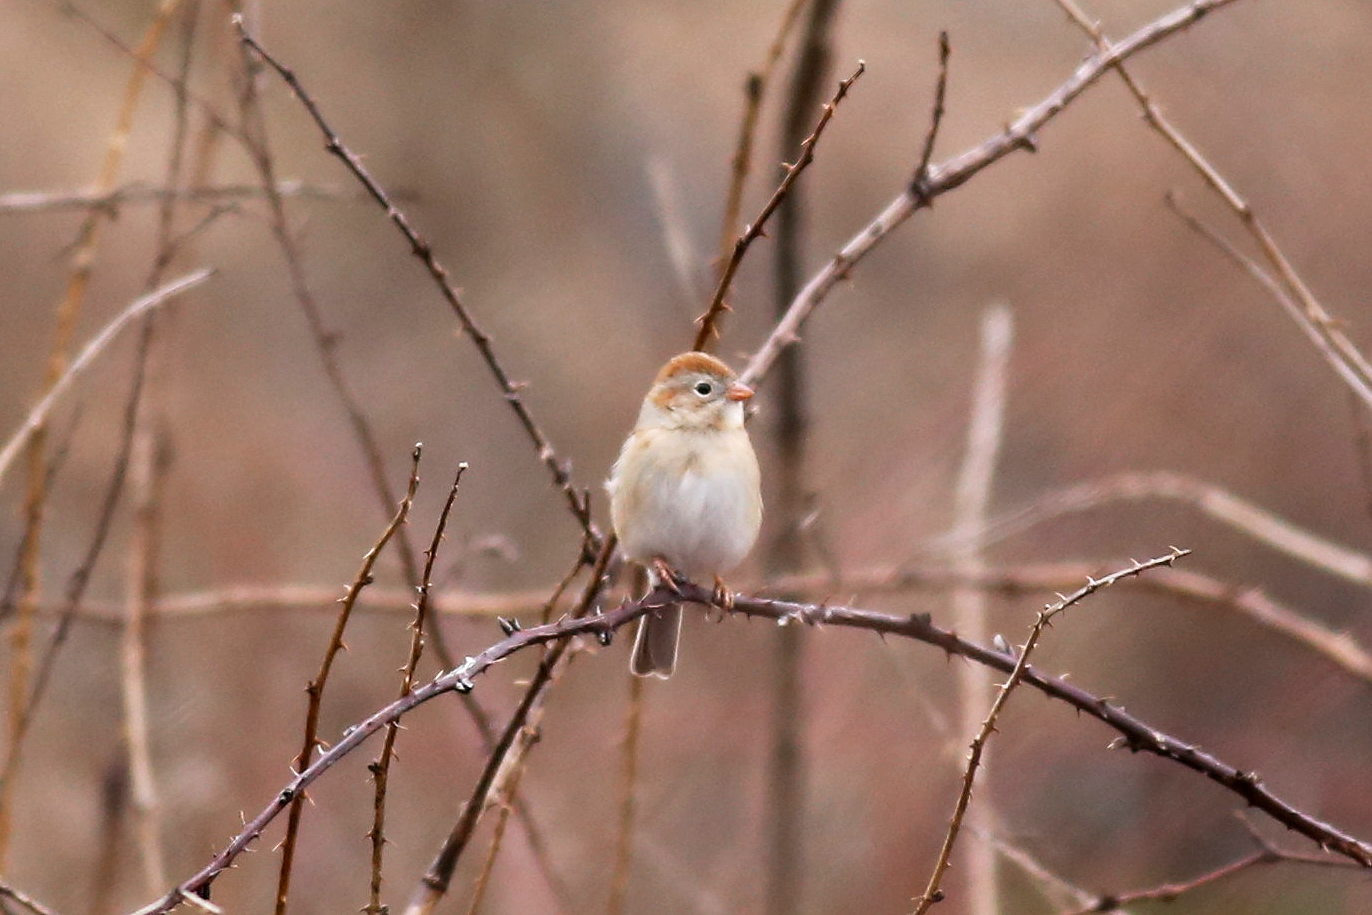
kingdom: Animalia
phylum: Chordata
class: Aves
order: Passeriformes
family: Passerellidae
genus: Spizella
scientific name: Spizella pusilla
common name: Field sparrow
